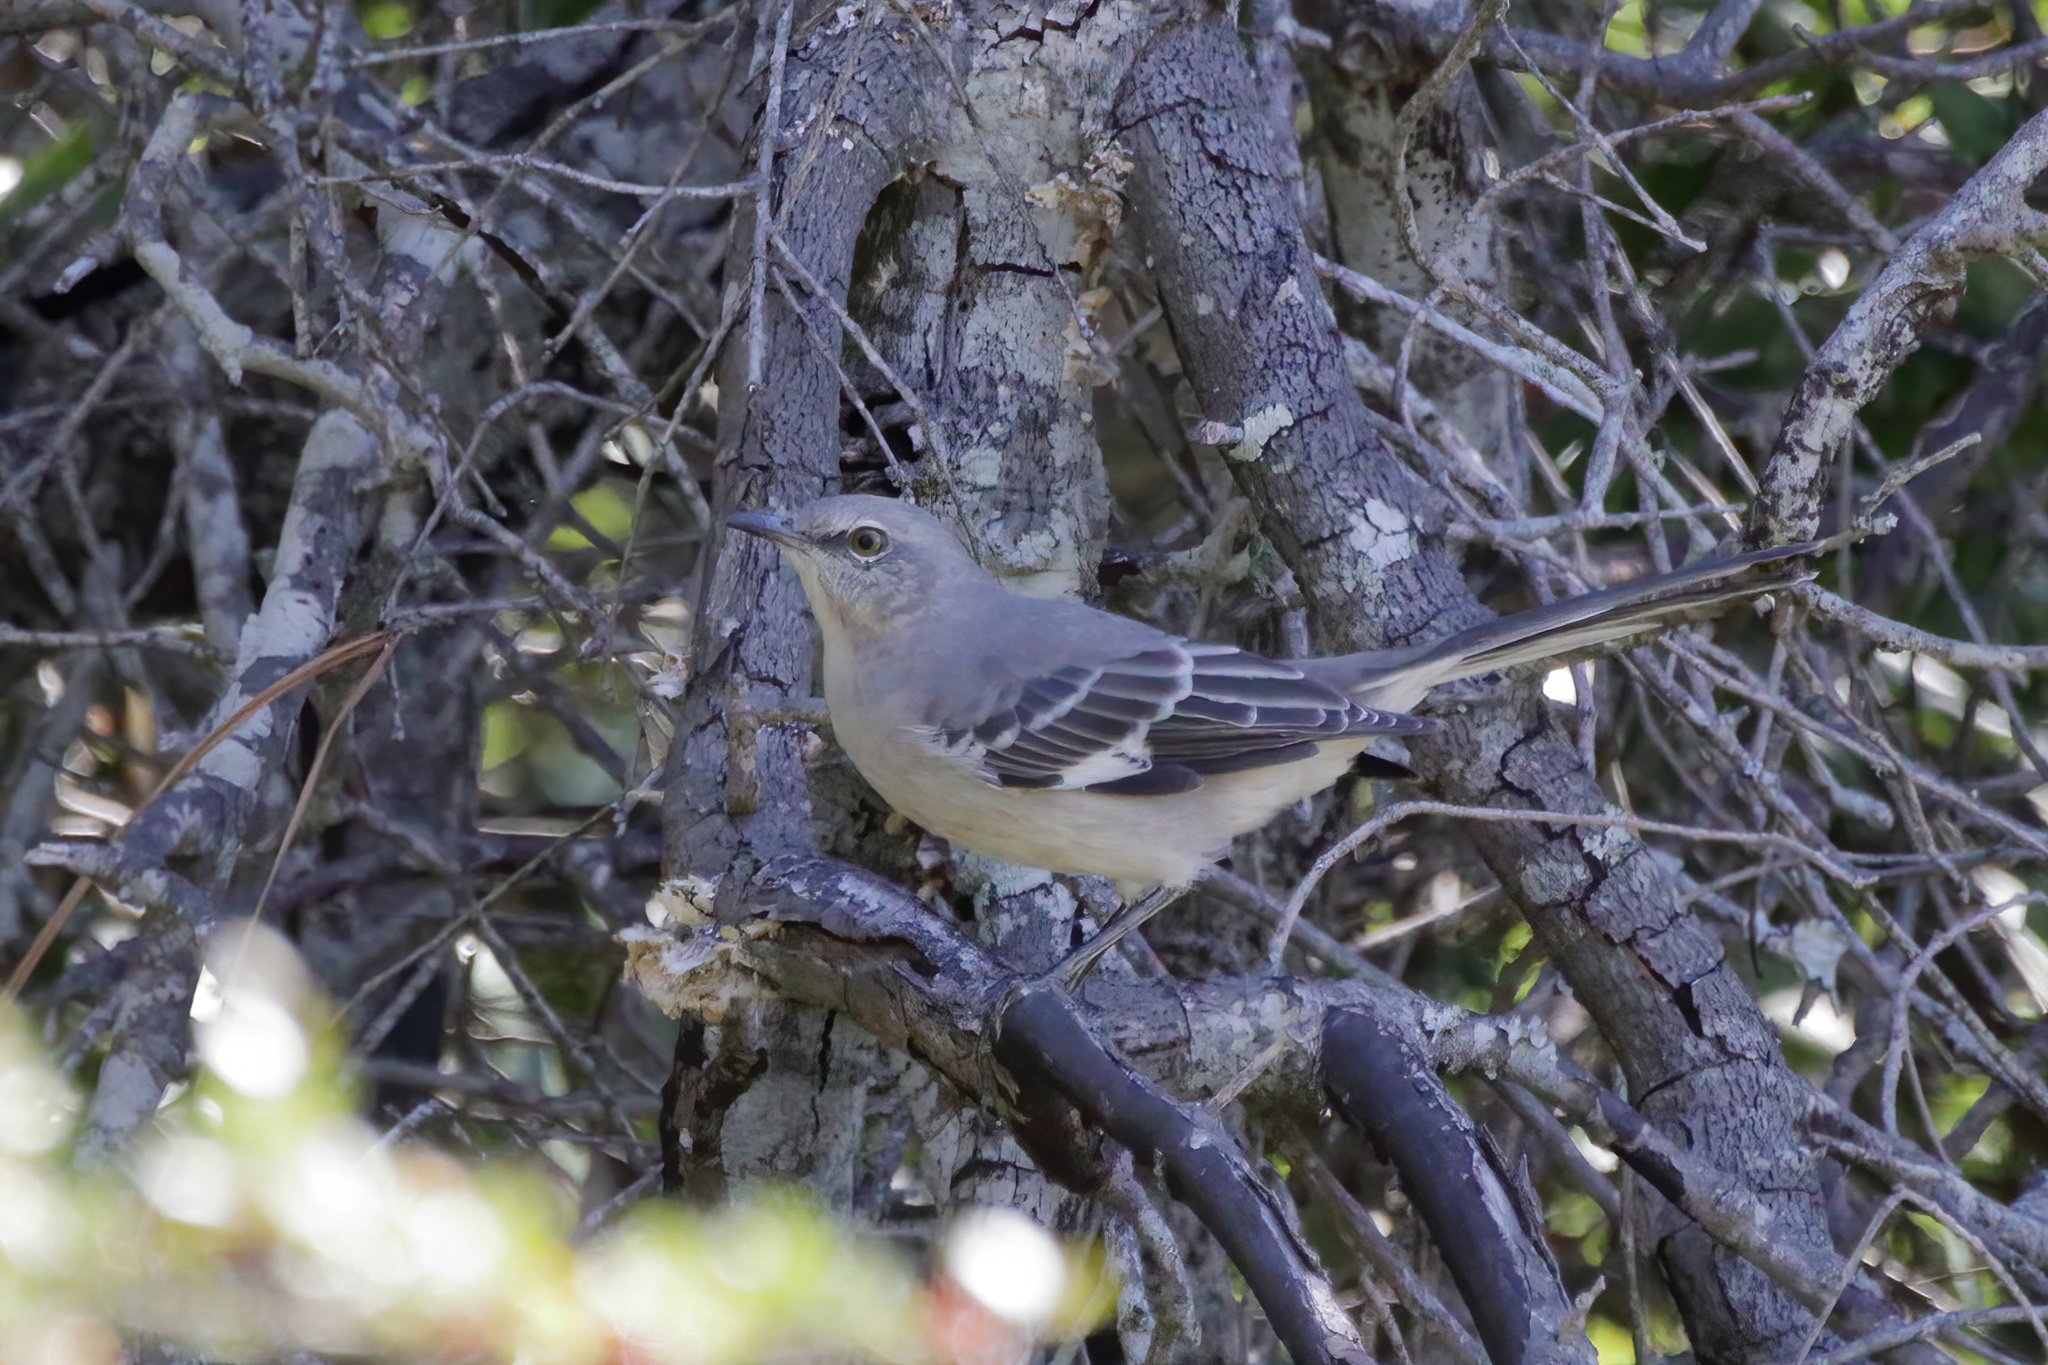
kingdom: Animalia
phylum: Chordata
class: Aves
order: Passeriformes
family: Mimidae
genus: Mimus
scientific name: Mimus polyglottos
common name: Northern mockingbird
